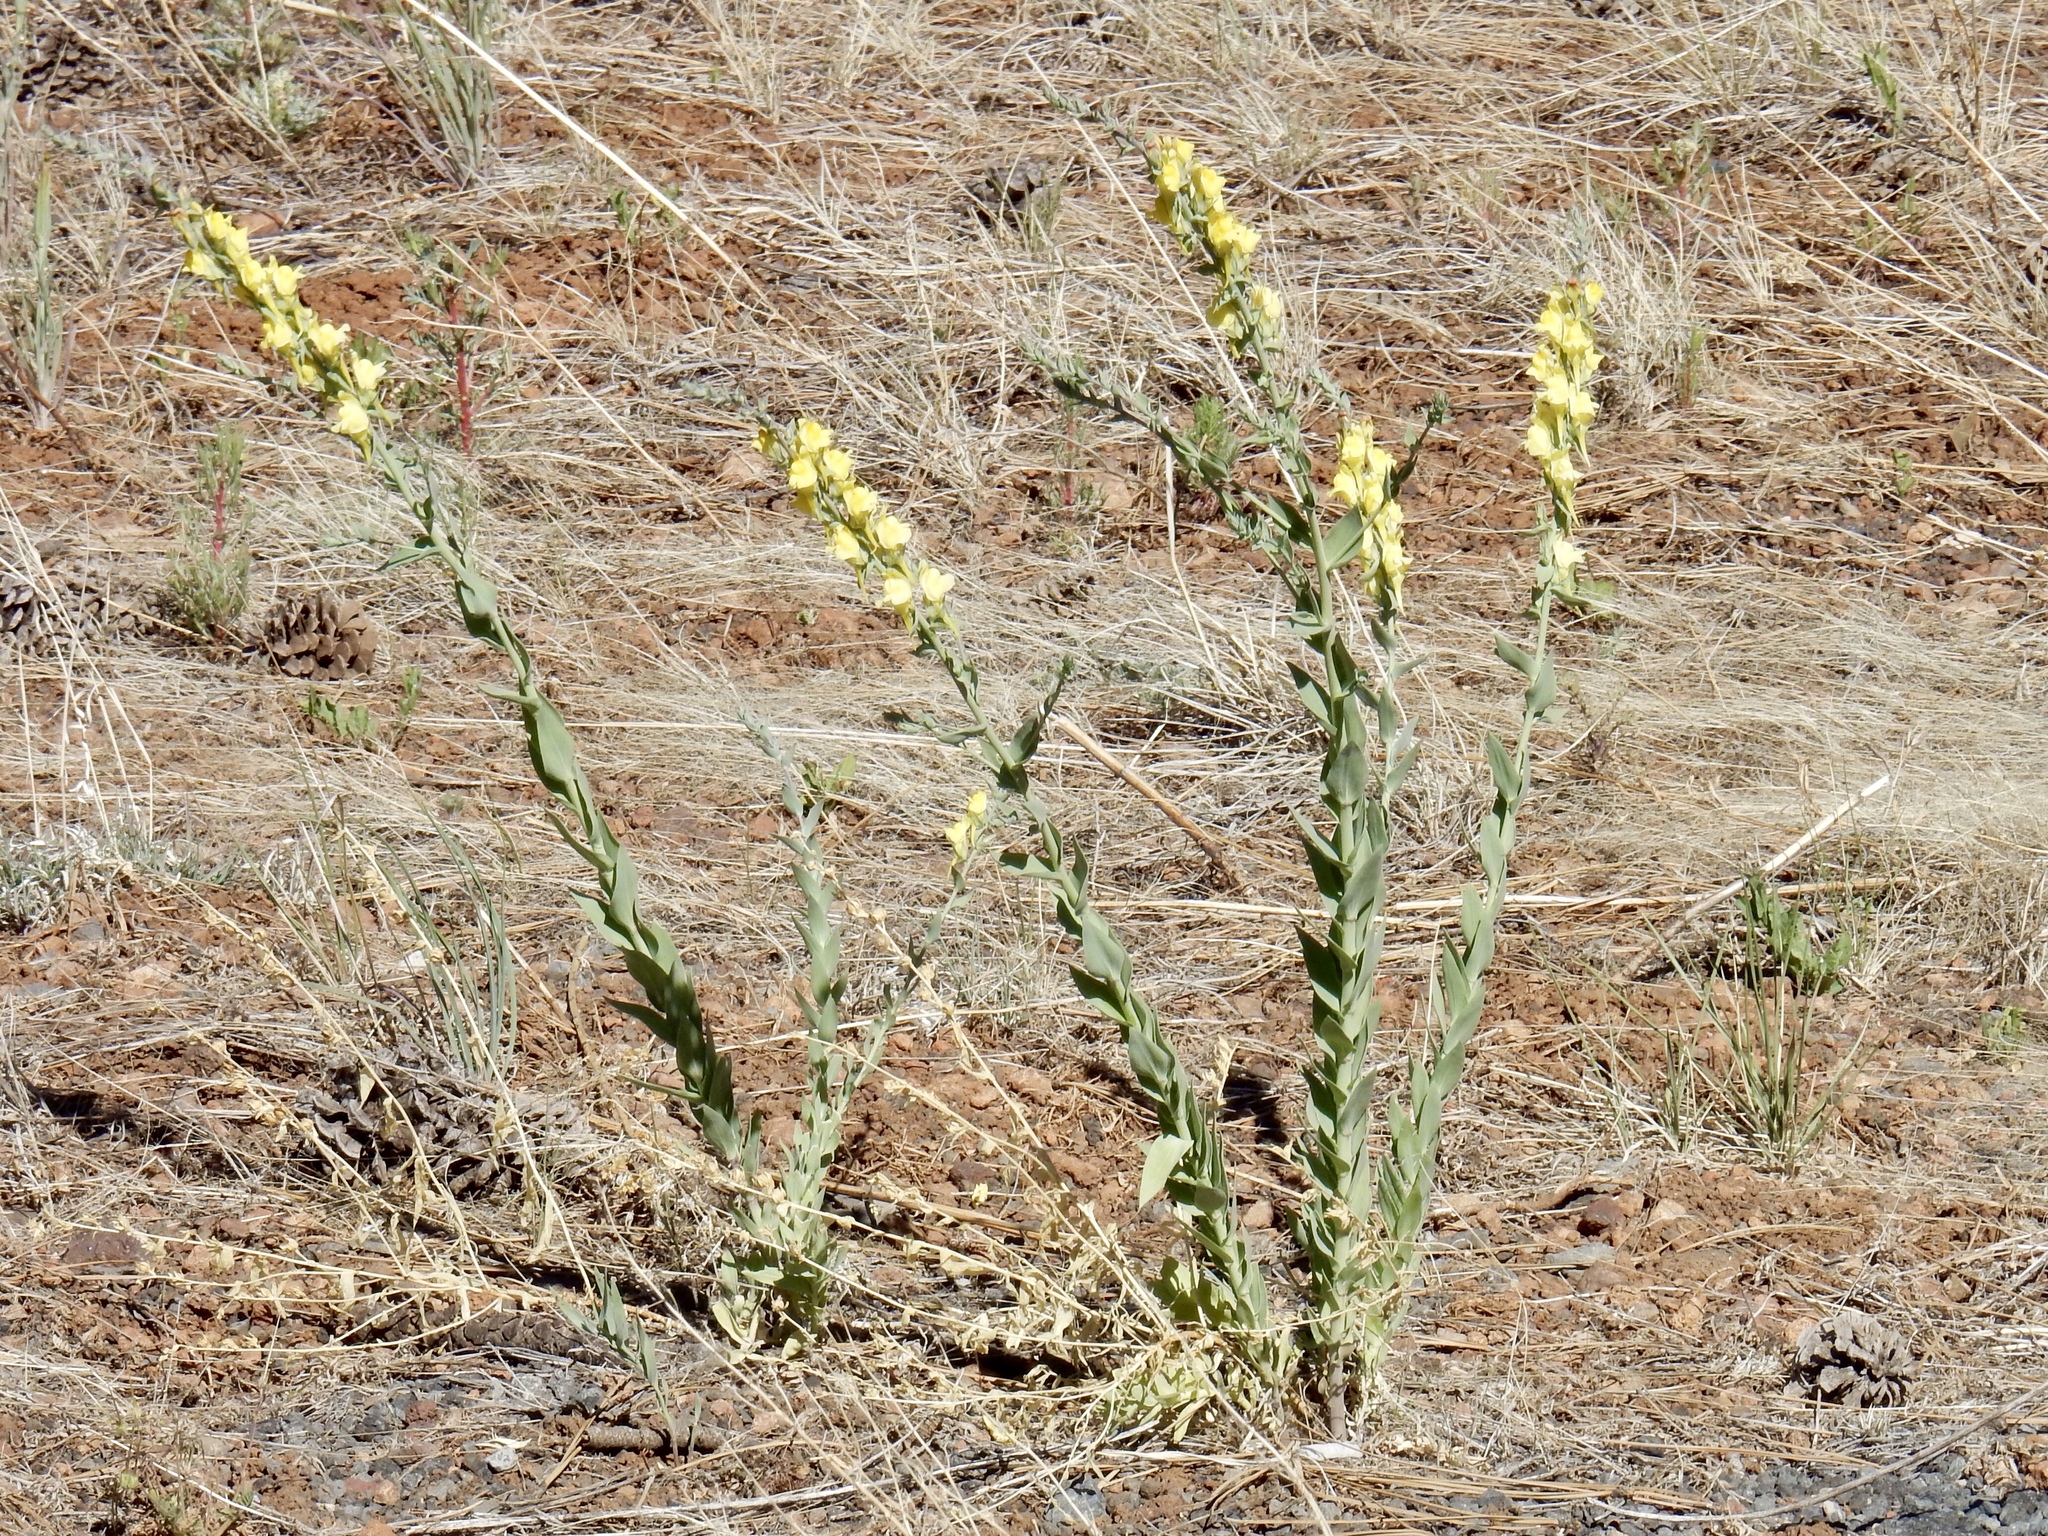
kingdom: Plantae
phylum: Tracheophyta
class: Magnoliopsida
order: Lamiales
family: Plantaginaceae
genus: Linaria
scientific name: Linaria dalmatica
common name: Dalmatian toadflax
